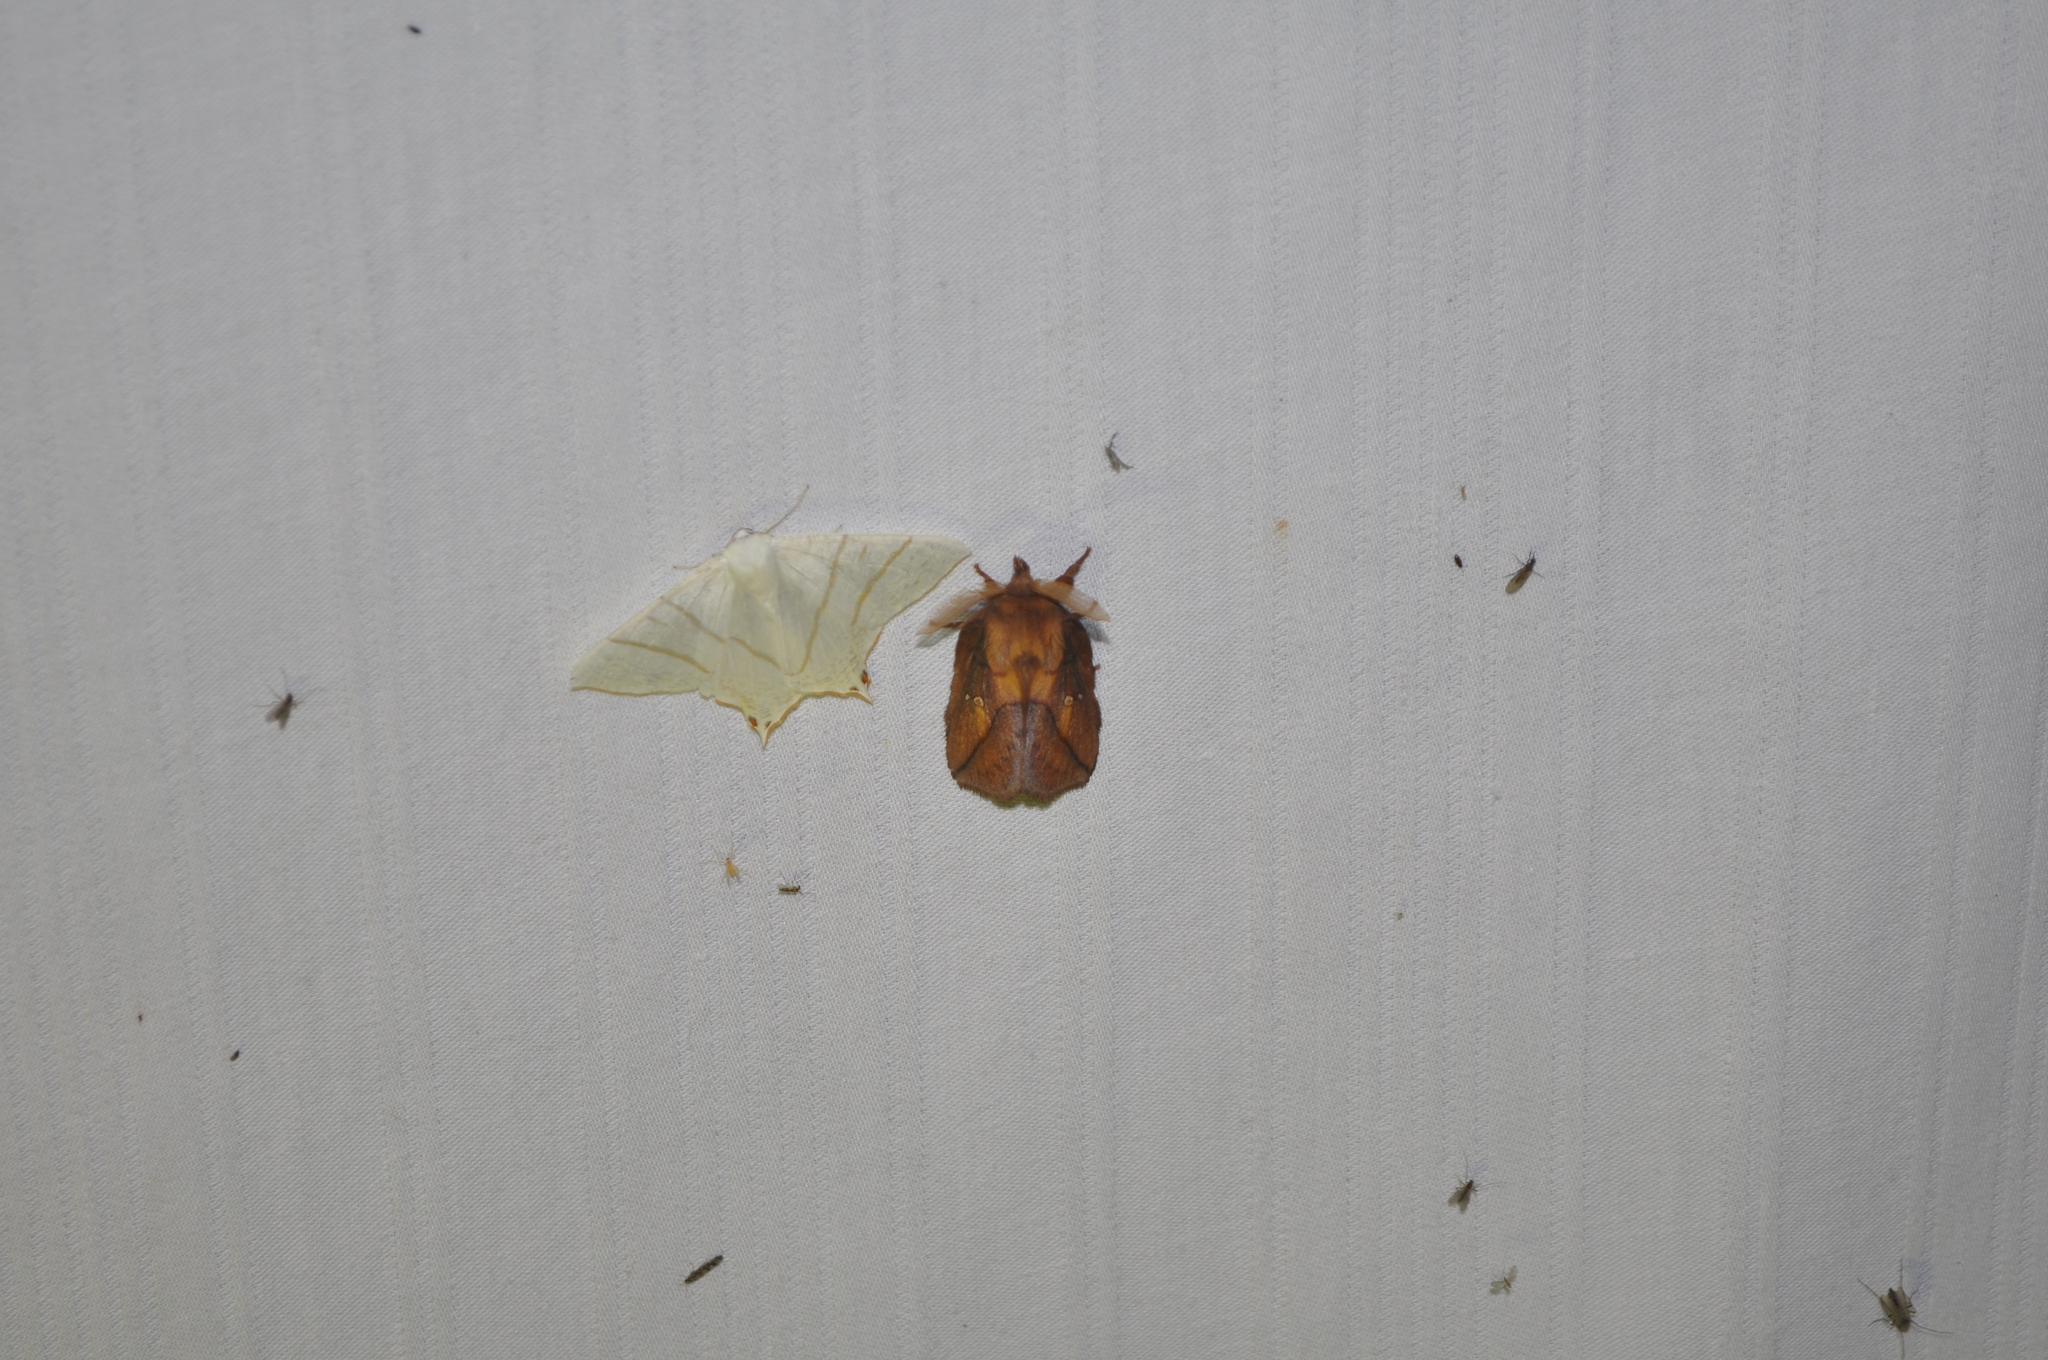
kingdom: Animalia
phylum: Arthropoda
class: Insecta
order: Lepidoptera
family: Lasiocampidae
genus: Euthrix
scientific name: Euthrix potatoria
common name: Drinker
